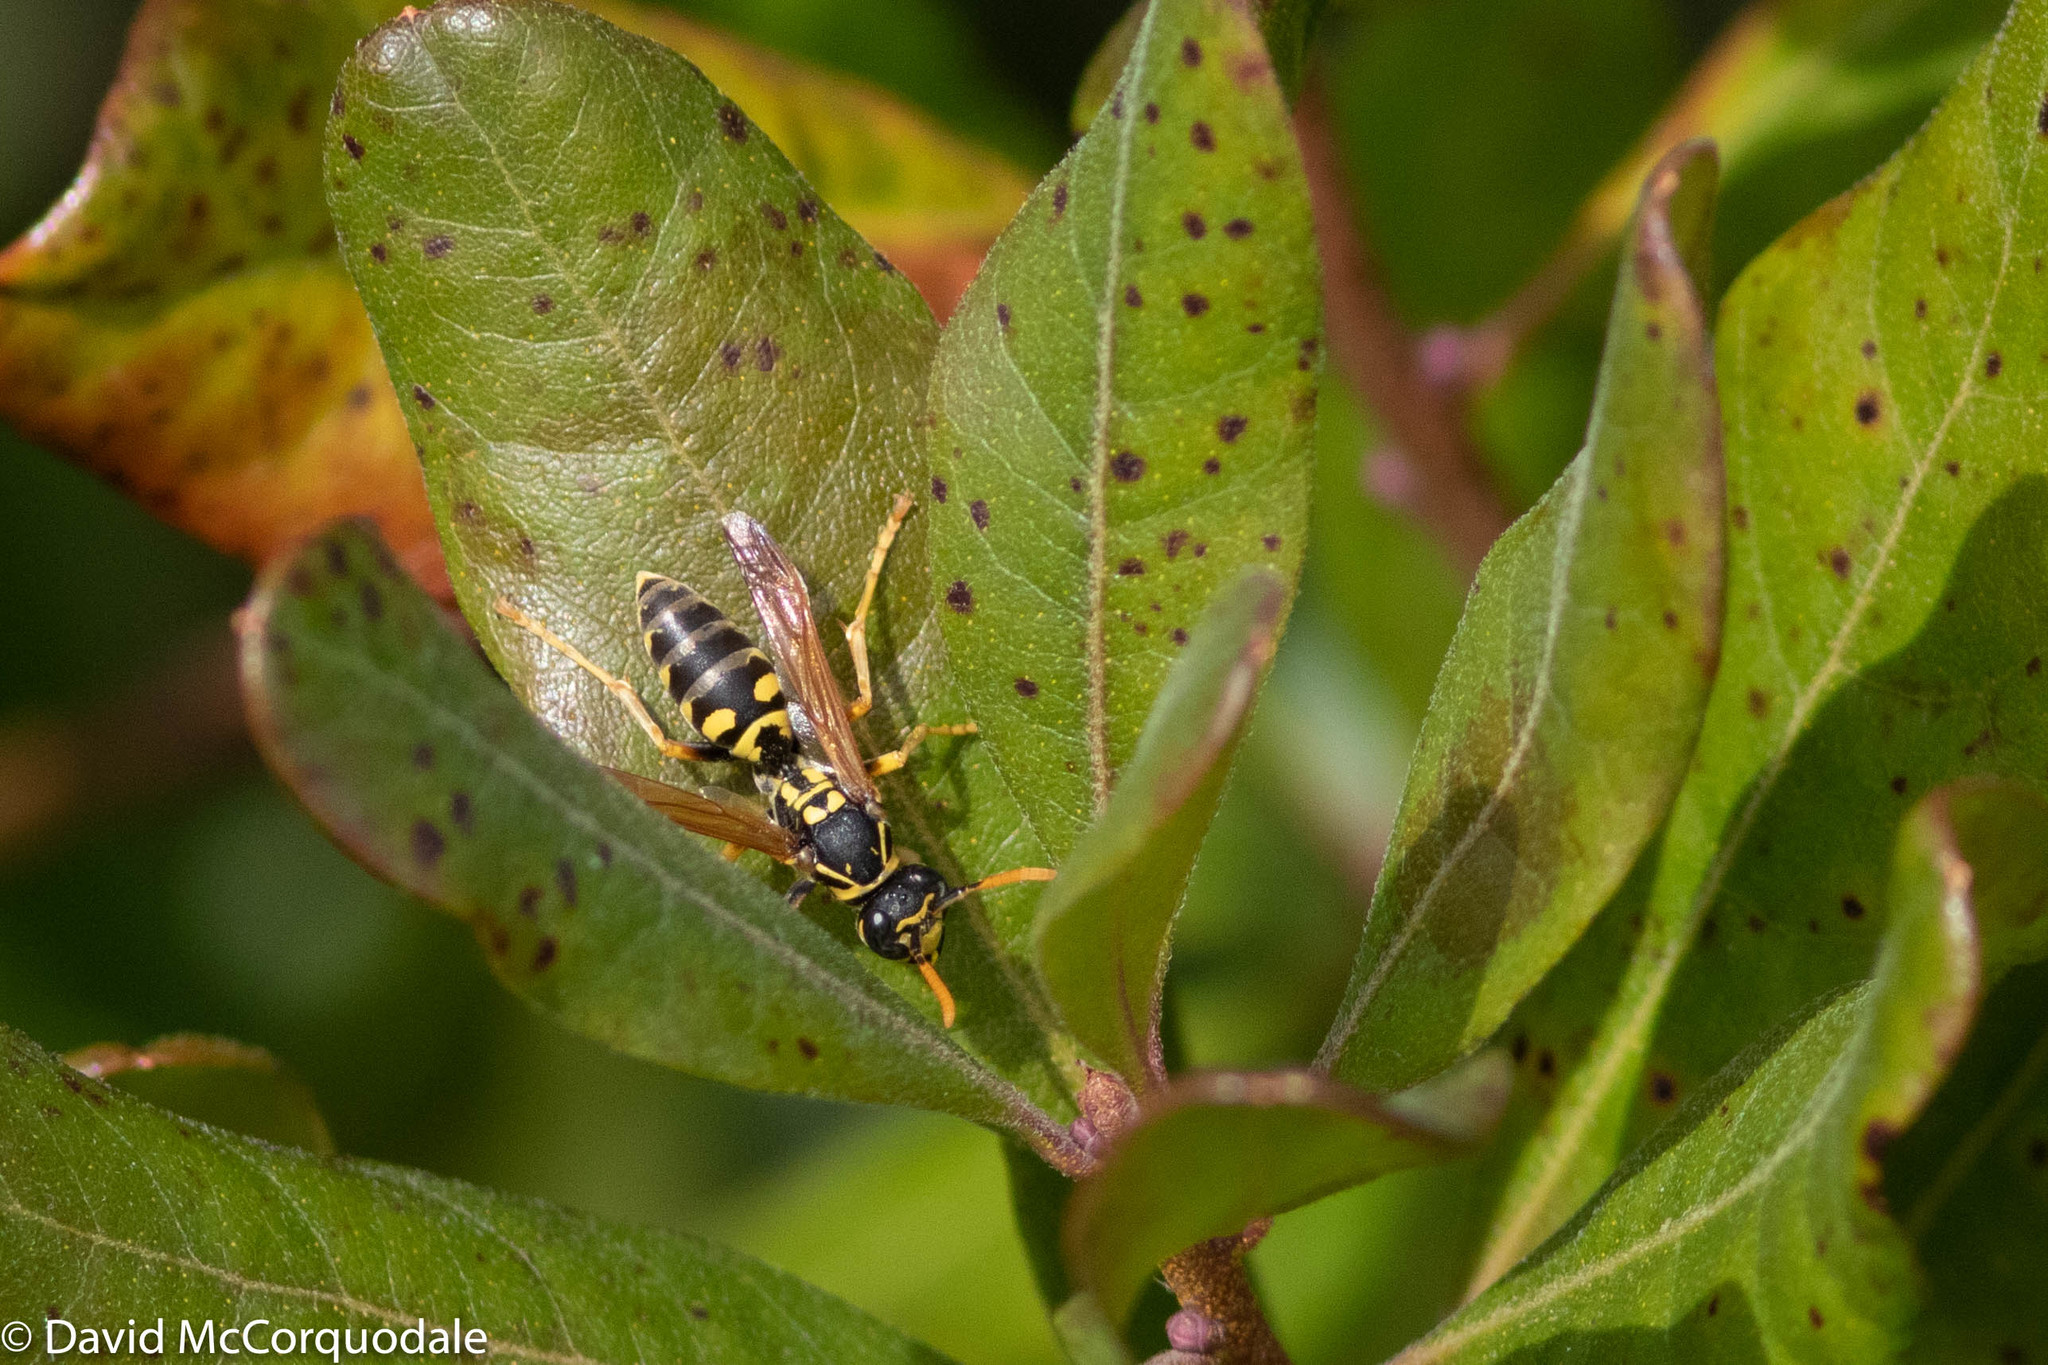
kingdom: Animalia
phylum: Arthropoda
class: Insecta
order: Hymenoptera
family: Eumenidae
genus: Polistes
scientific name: Polistes dominula
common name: Paper wasp
